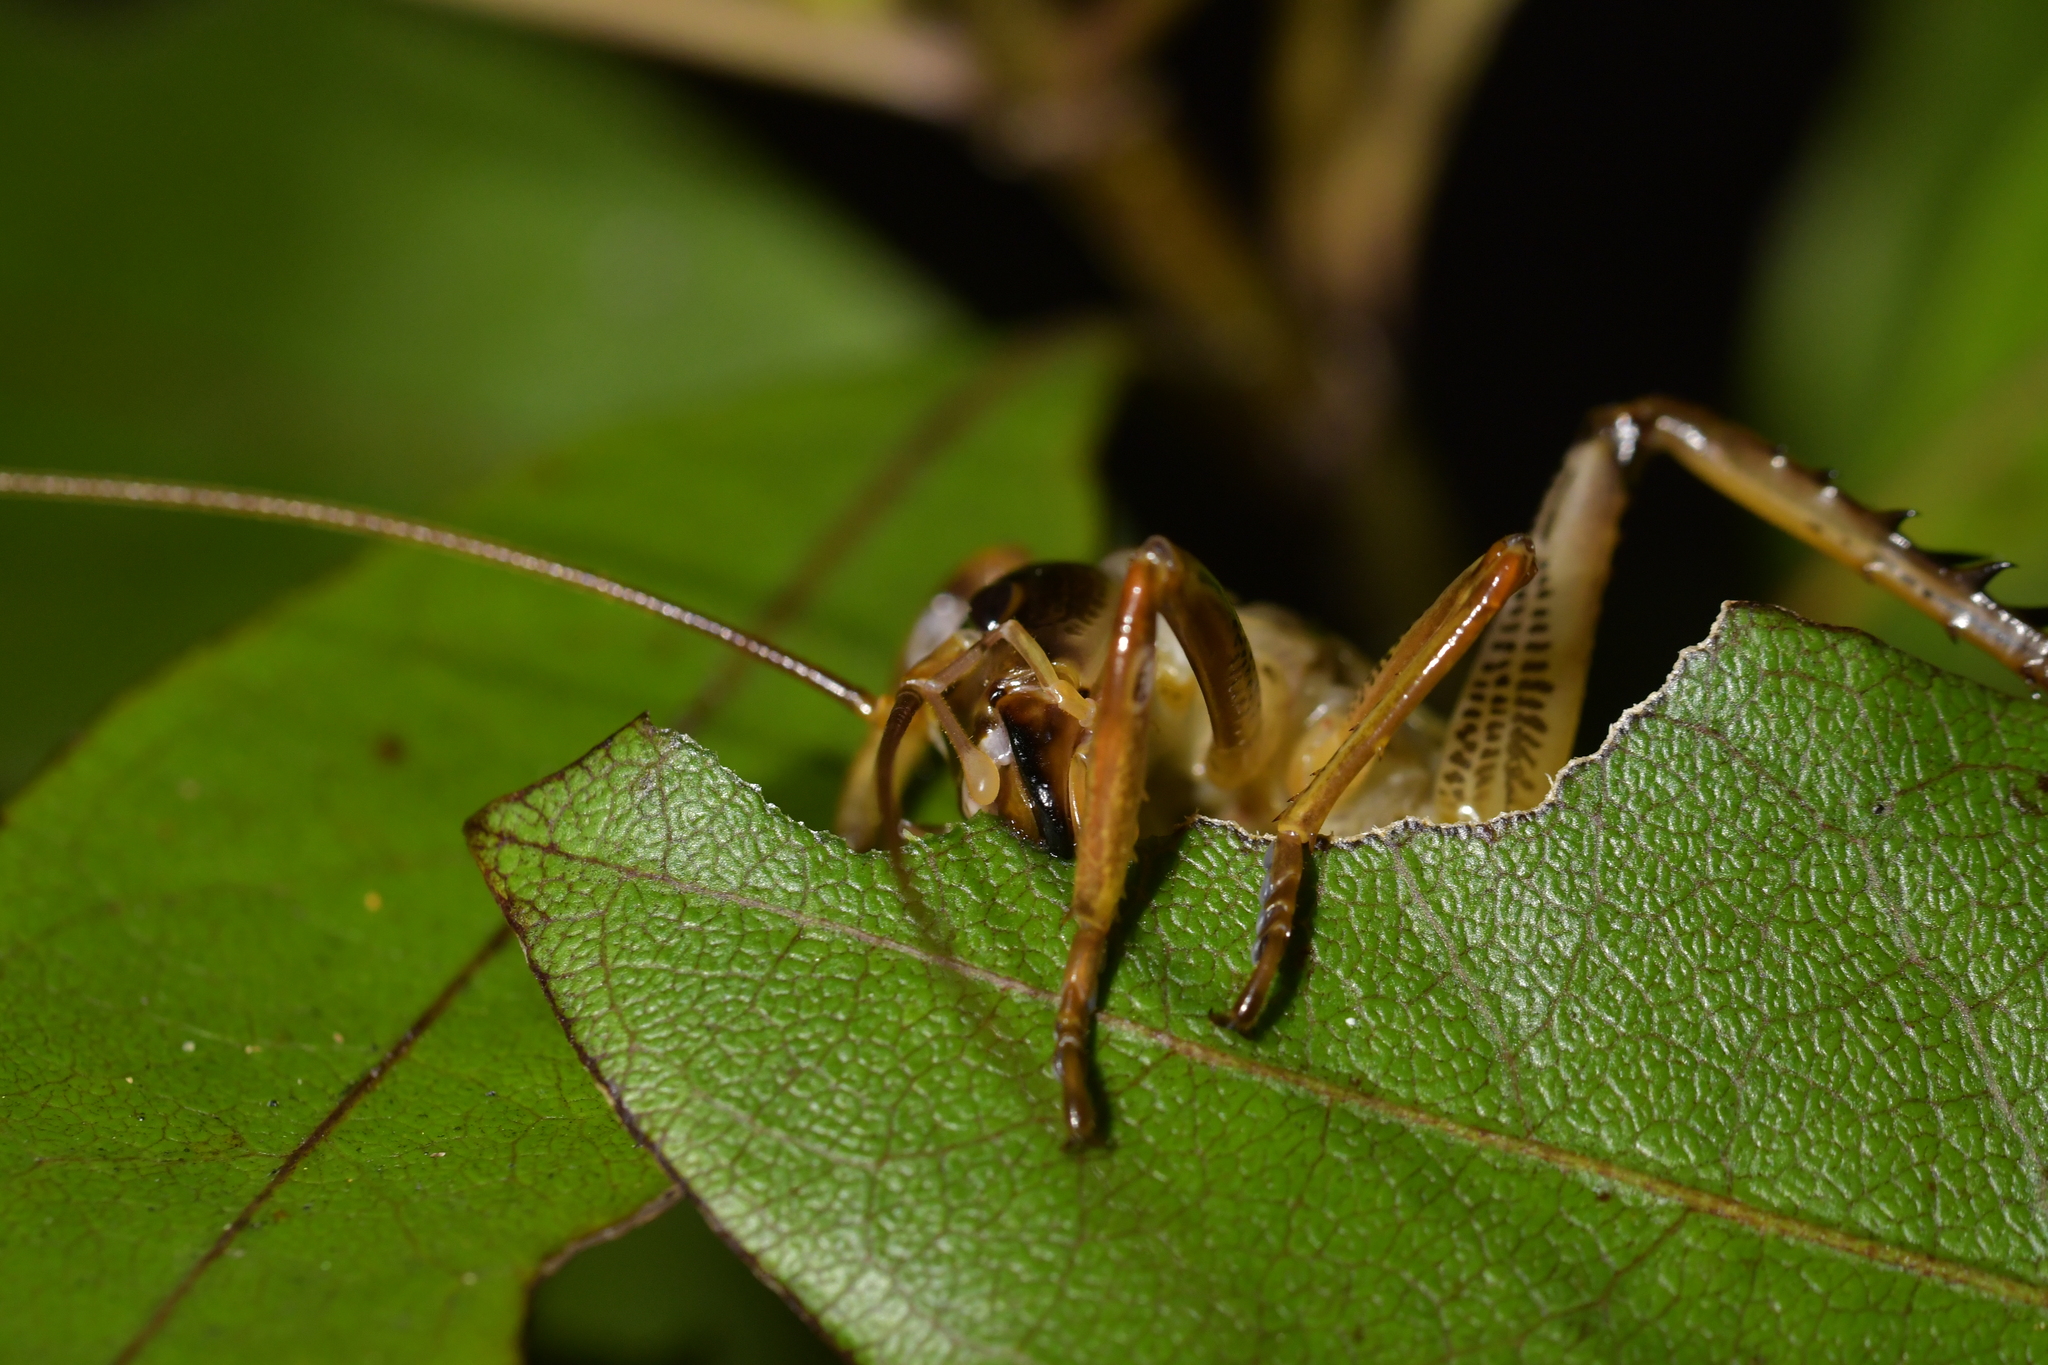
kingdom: Animalia
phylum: Arthropoda
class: Insecta
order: Orthoptera
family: Anostostomatidae
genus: Hemideina
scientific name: Hemideina thoracica
